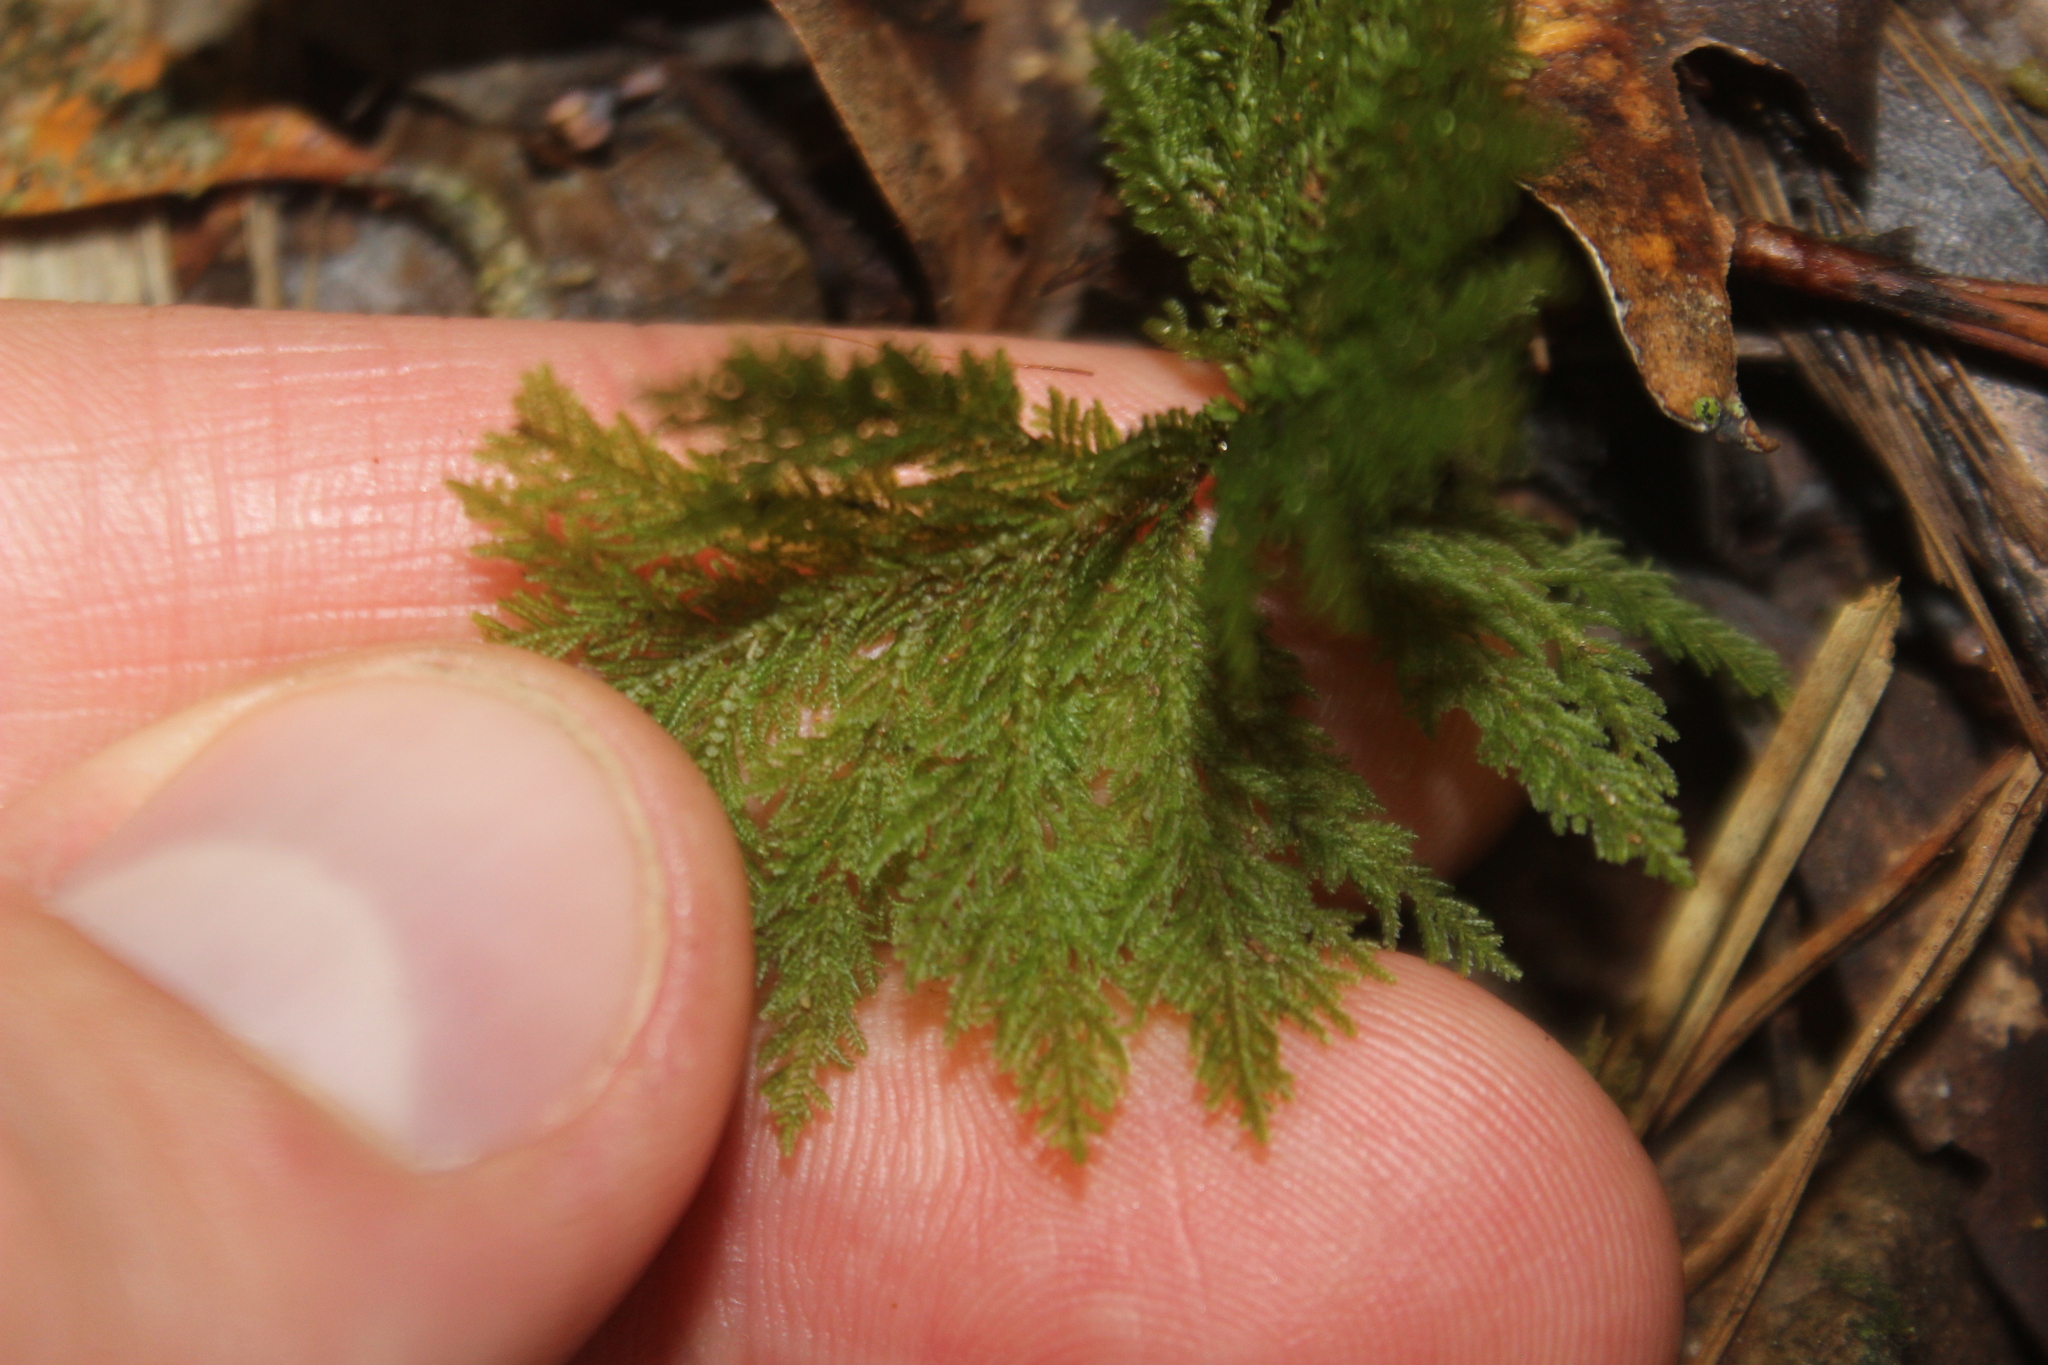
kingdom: Plantae
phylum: Bryophyta
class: Bryopsida
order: Hypopterygiales
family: Hypopterygiaceae
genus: Dendrohypopterygium
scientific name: Dendrohypopterygium filiculiforme
